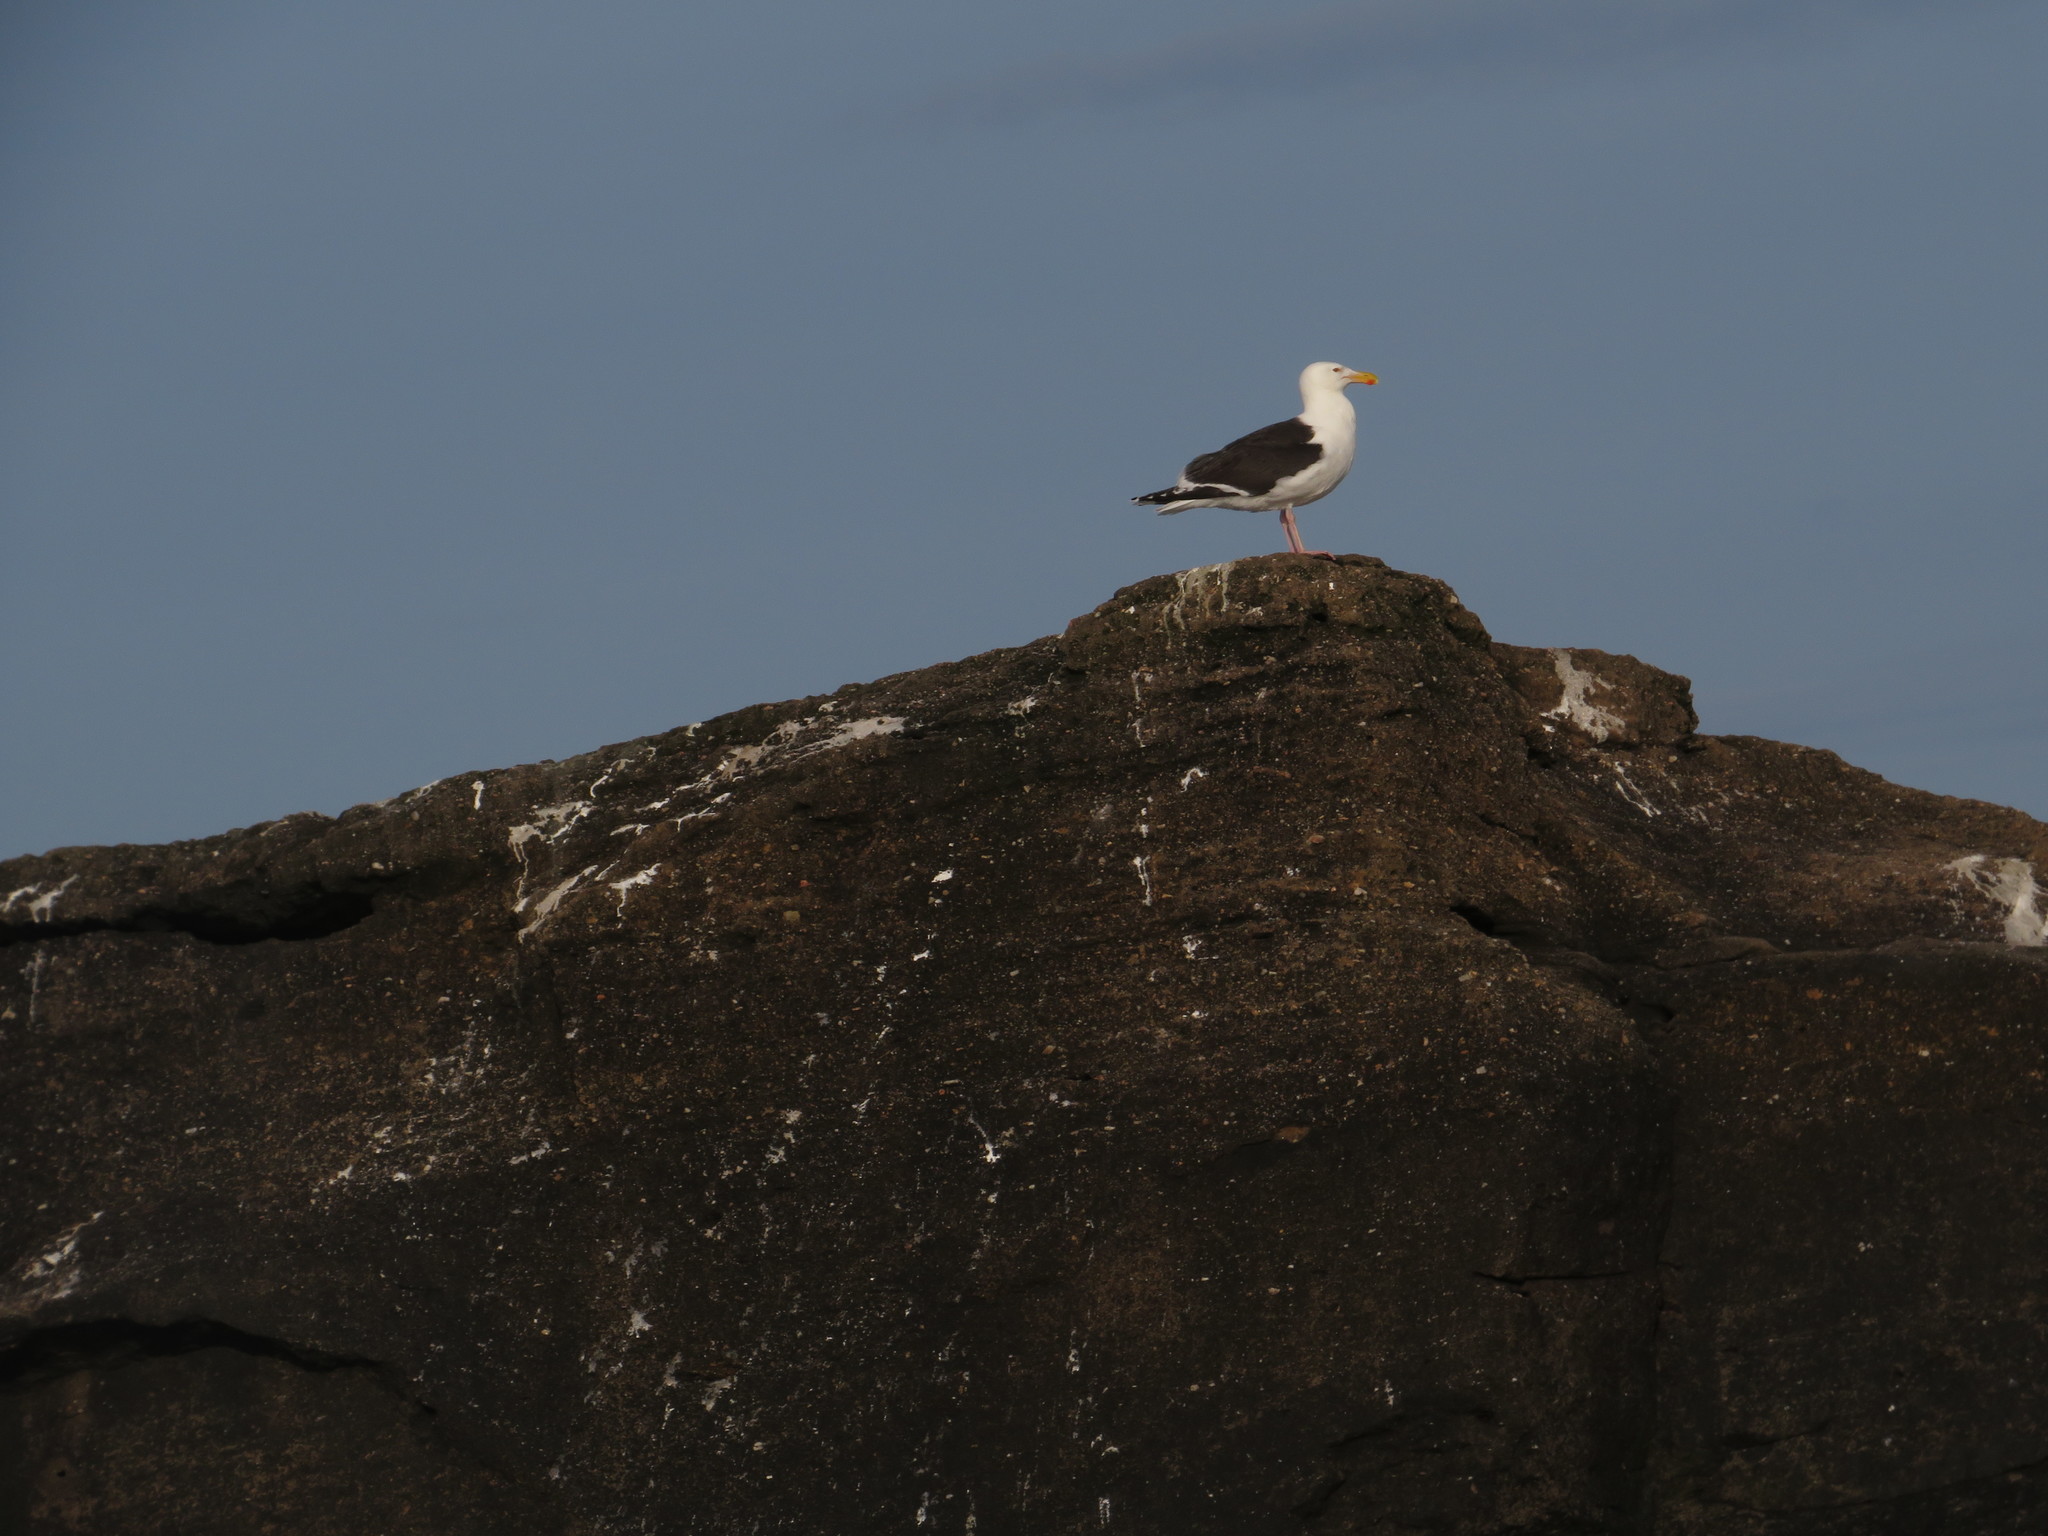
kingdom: Animalia
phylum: Chordata
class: Aves
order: Charadriiformes
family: Laridae
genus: Larus
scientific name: Larus marinus
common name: Great black-backed gull
